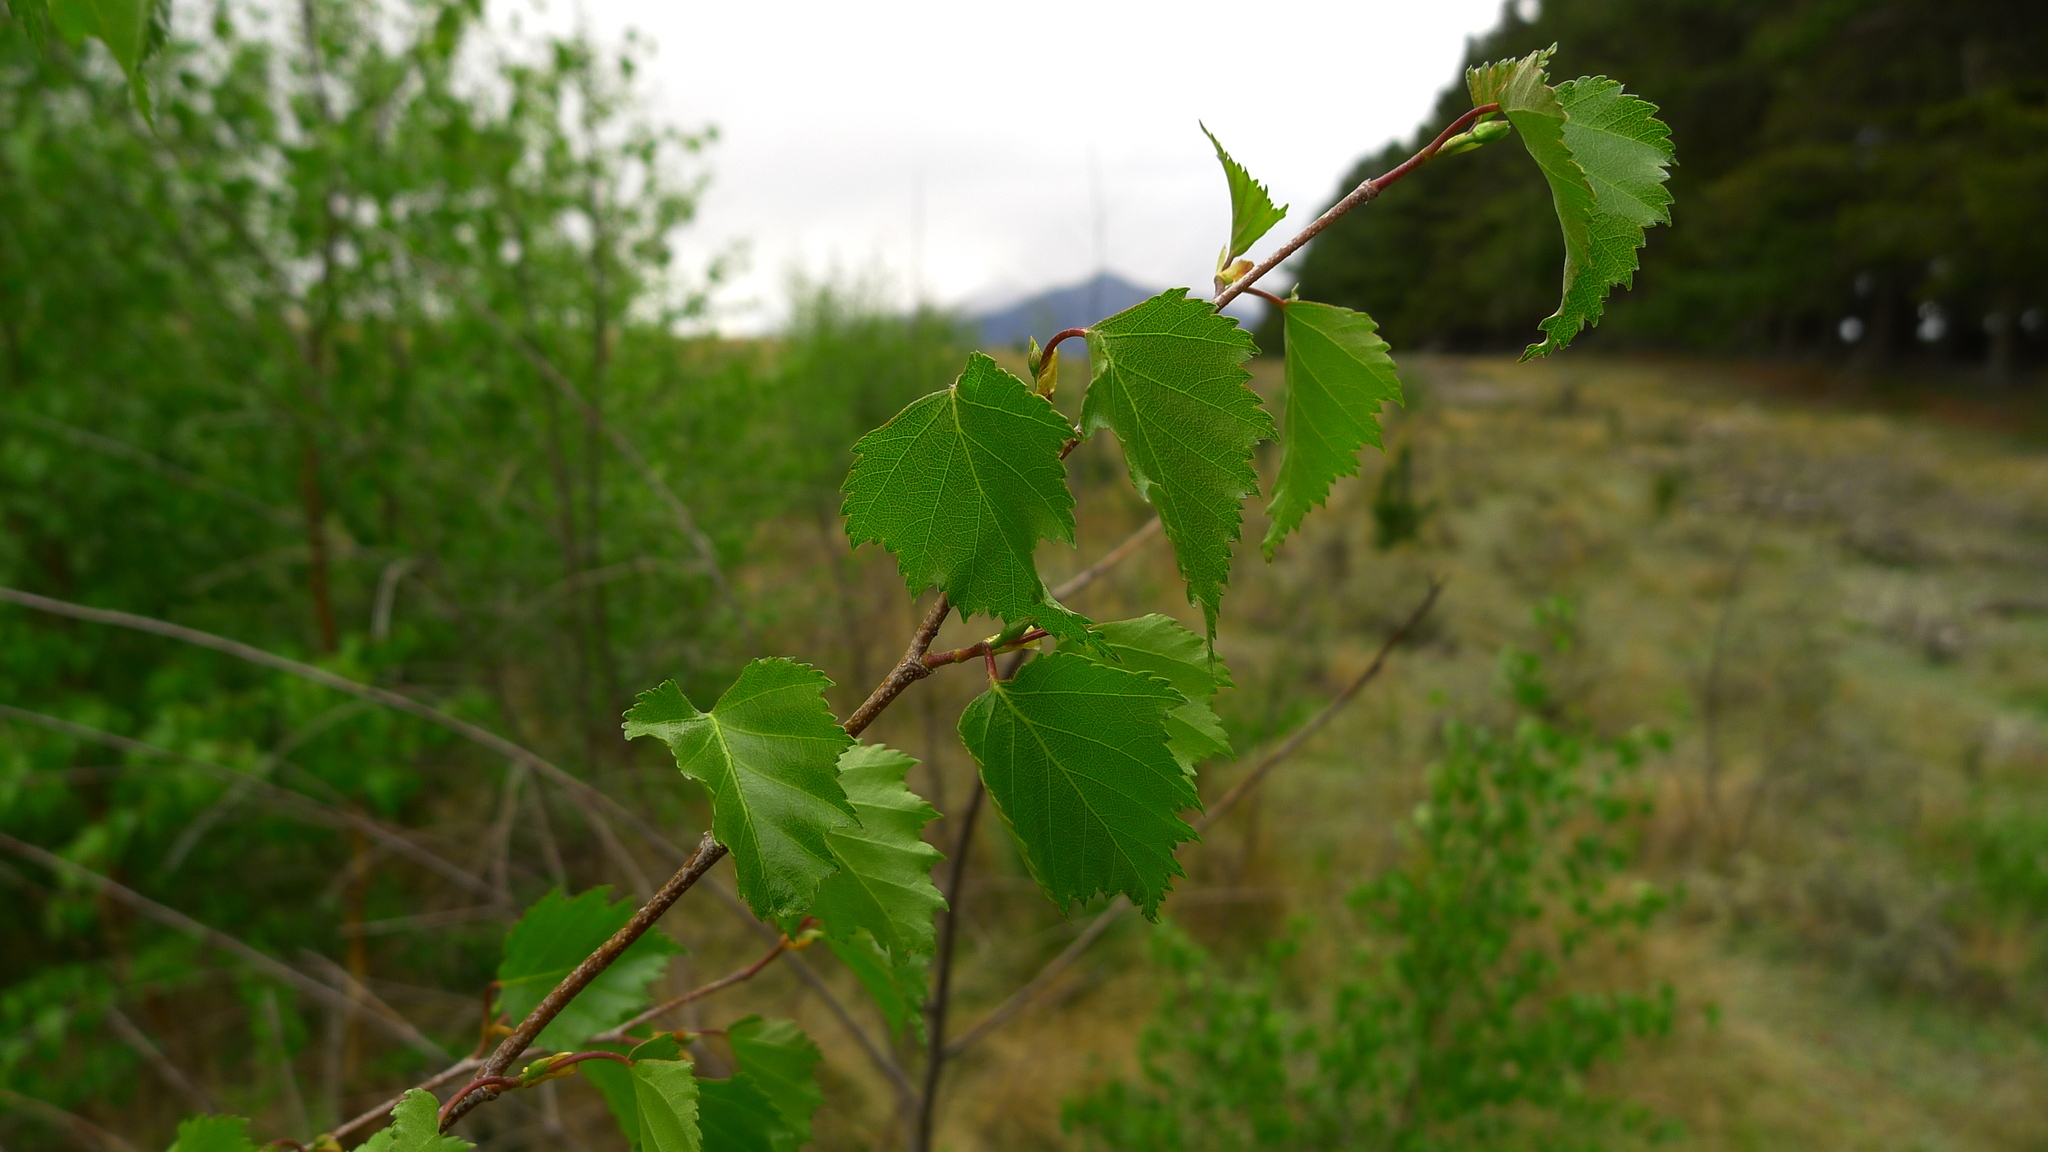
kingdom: Plantae
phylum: Tracheophyta
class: Magnoliopsida
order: Fagales
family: Betulaceae
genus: Betula
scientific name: Betula pendula
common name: Silver birch
